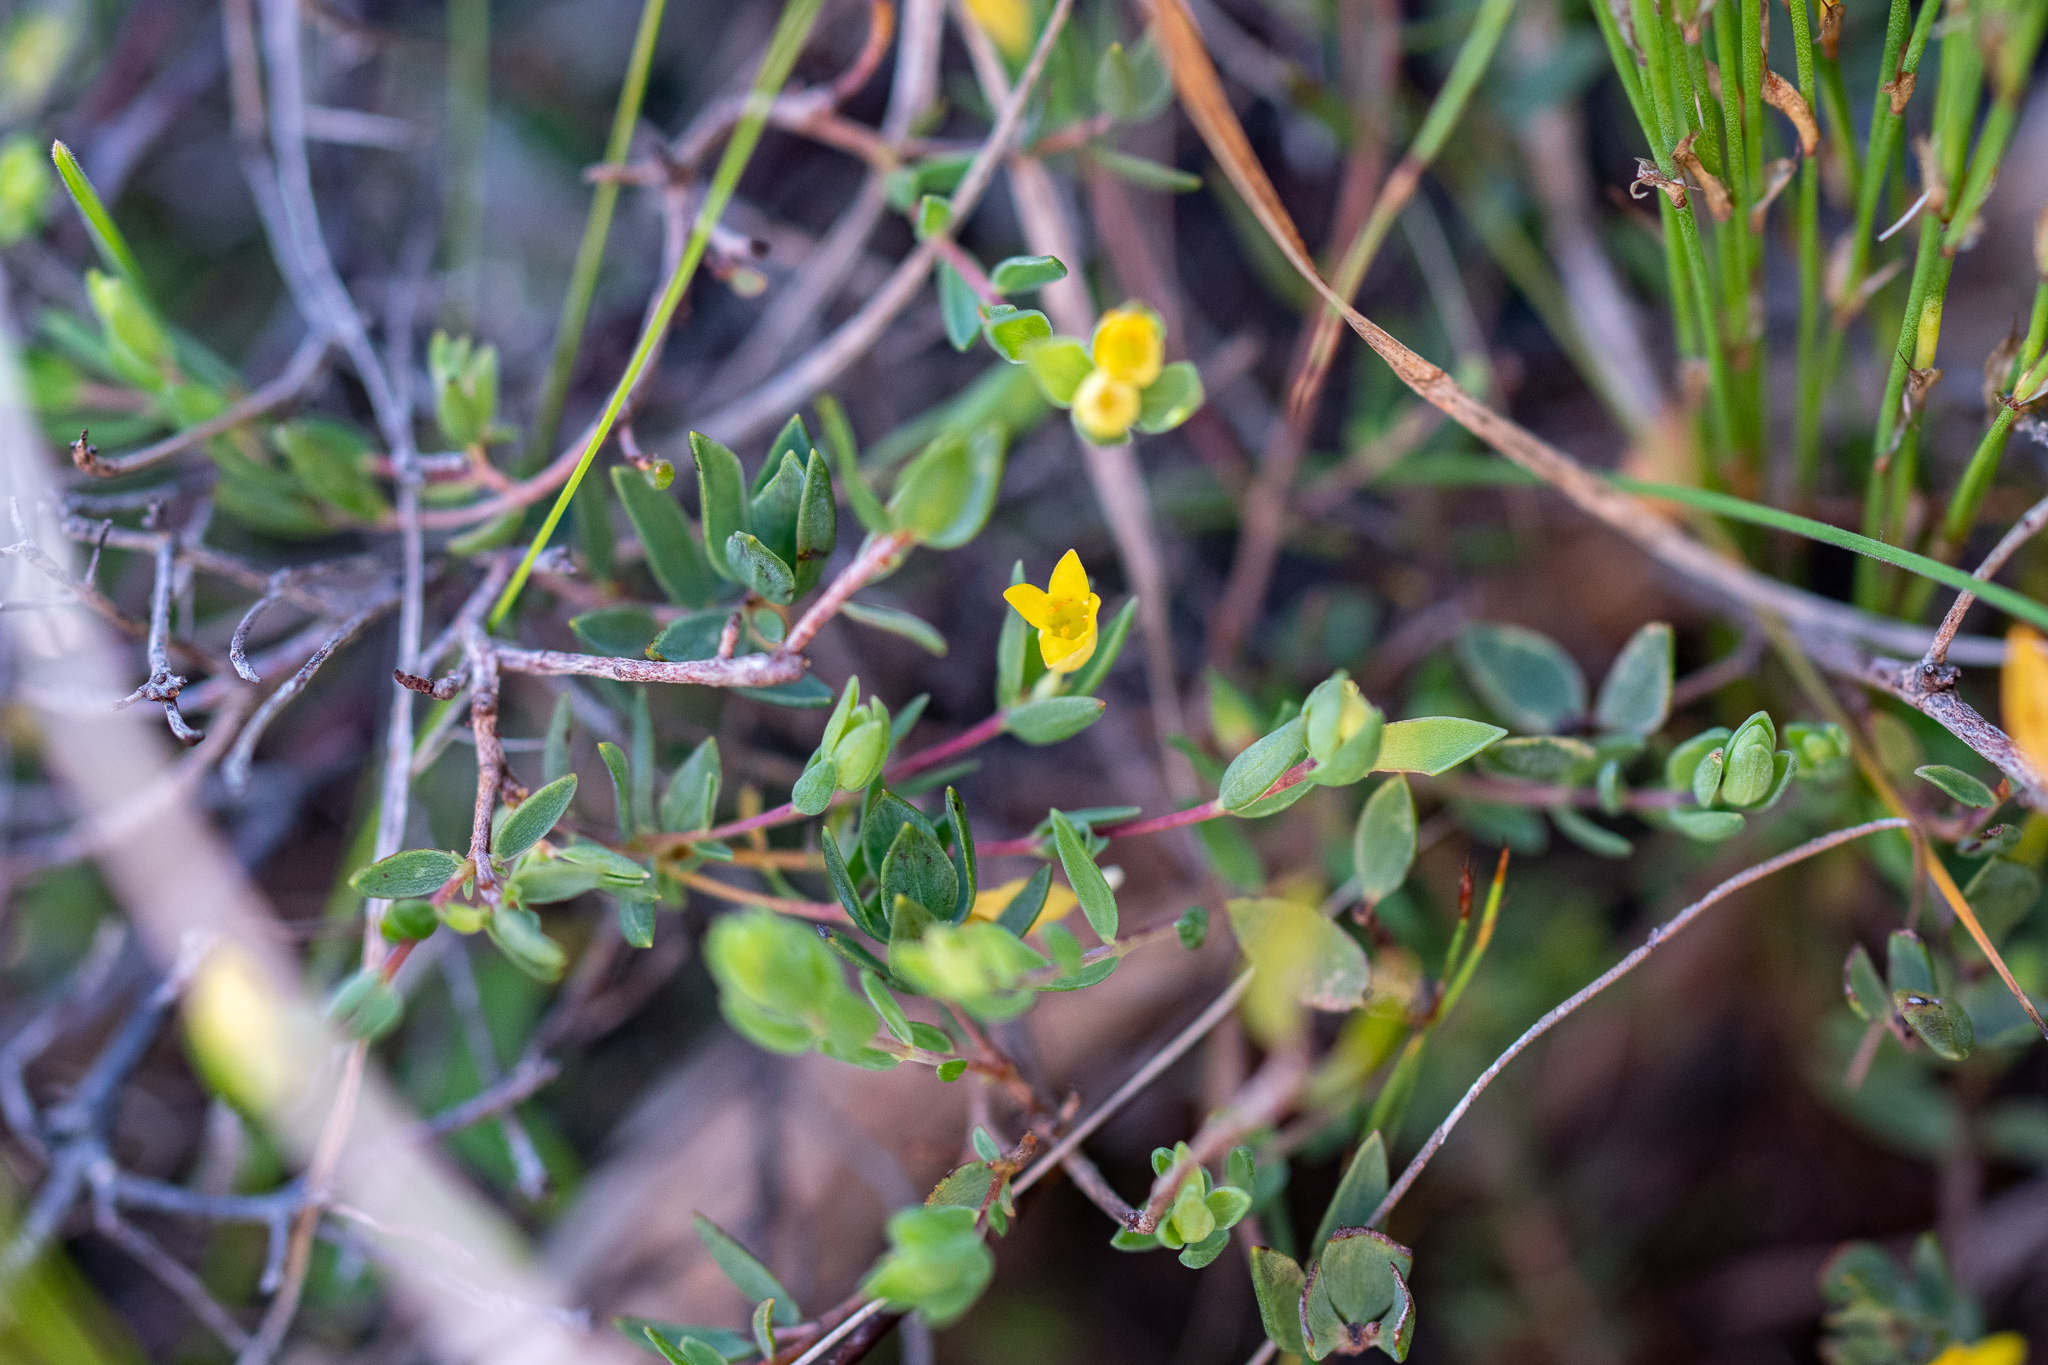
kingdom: Plantae
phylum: Tracheophyta
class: Magnoliopsida
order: Malvales
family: Thymelaeaceae
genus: Gnidia
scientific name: Gnidia juniperifolia
